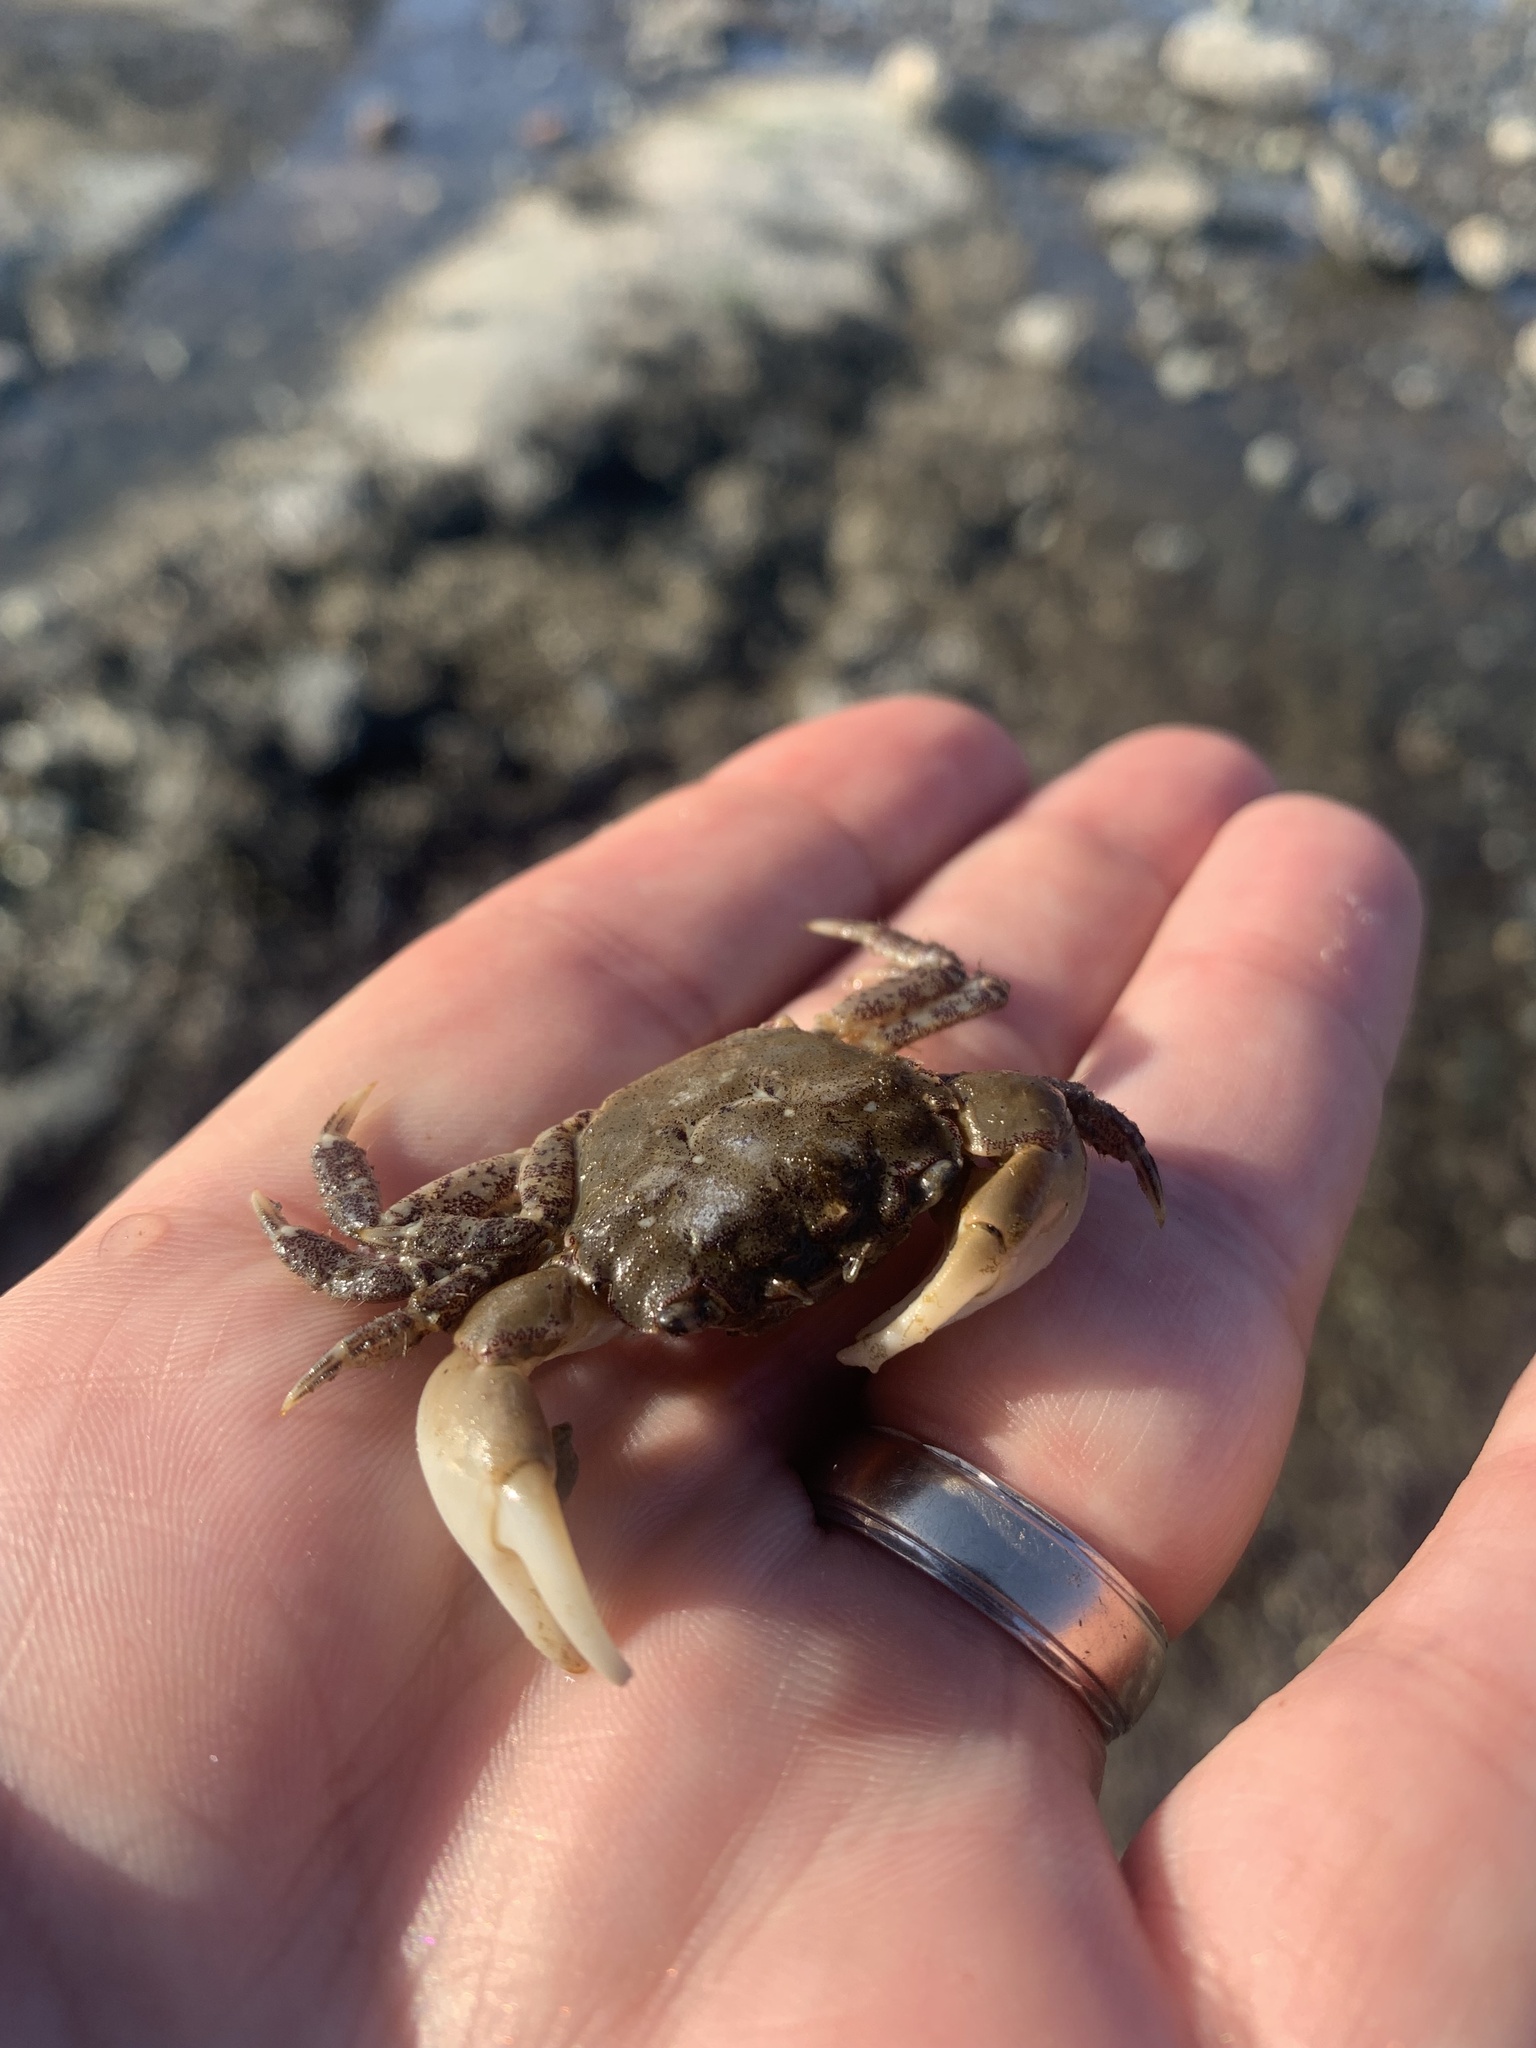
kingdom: Animalia
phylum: Arthropoda
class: Malacostraca
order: Decapoda
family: Varunidae
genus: Hemigrapsus
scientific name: Hemigrapsus oregonensis
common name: Yellow shore crab
